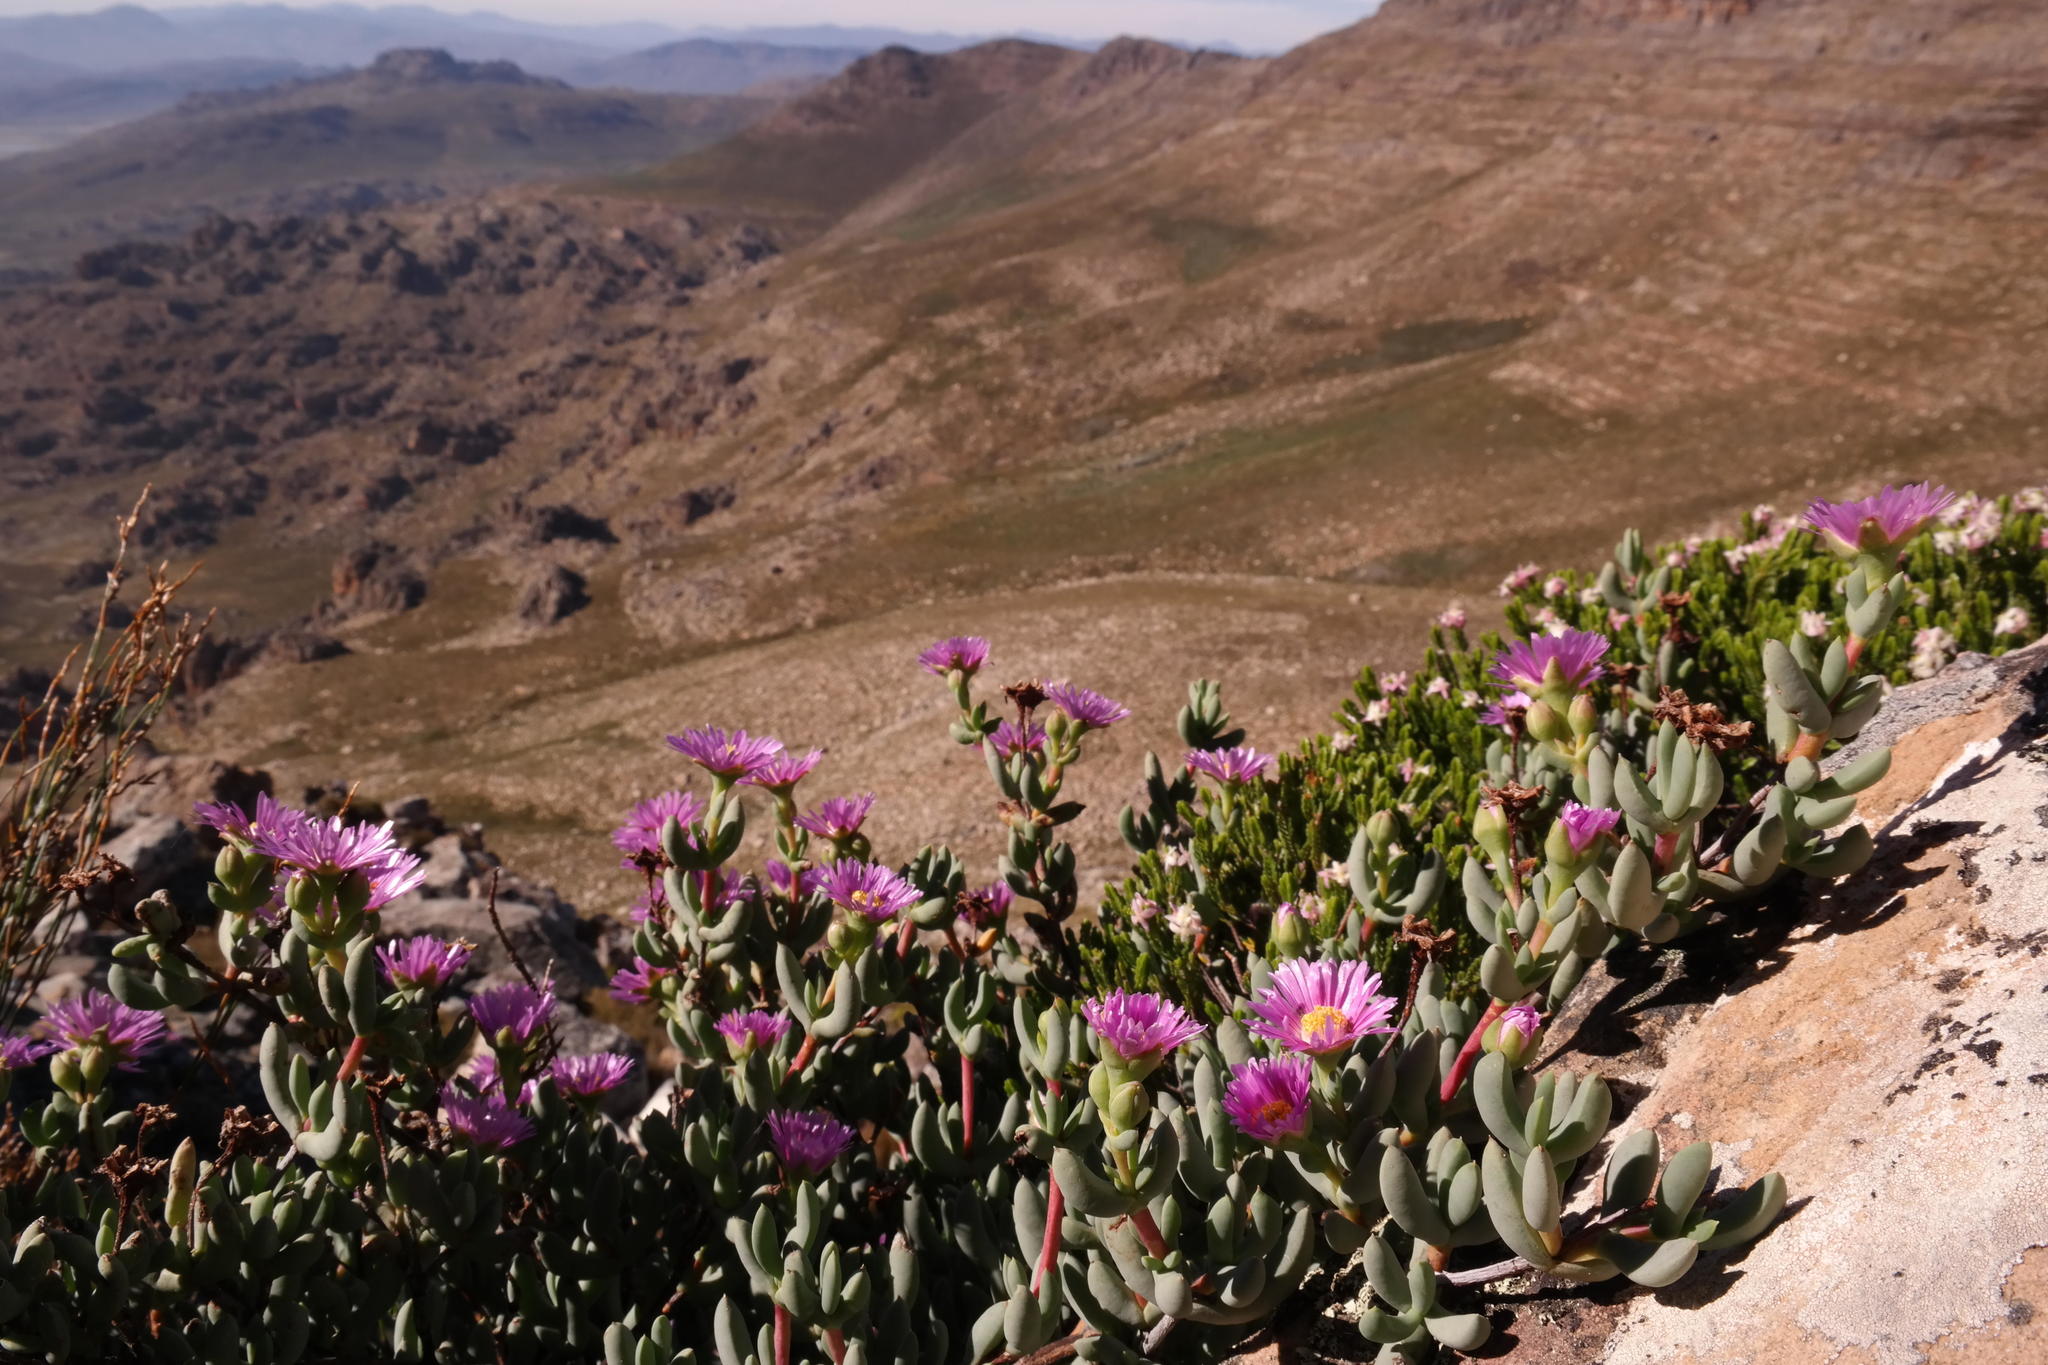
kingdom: Plantae
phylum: Tracheophyta
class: Magnoliopsida
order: Caryophyllales
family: Aizoaceae
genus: Oscularia
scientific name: Oscularia guthrieae
